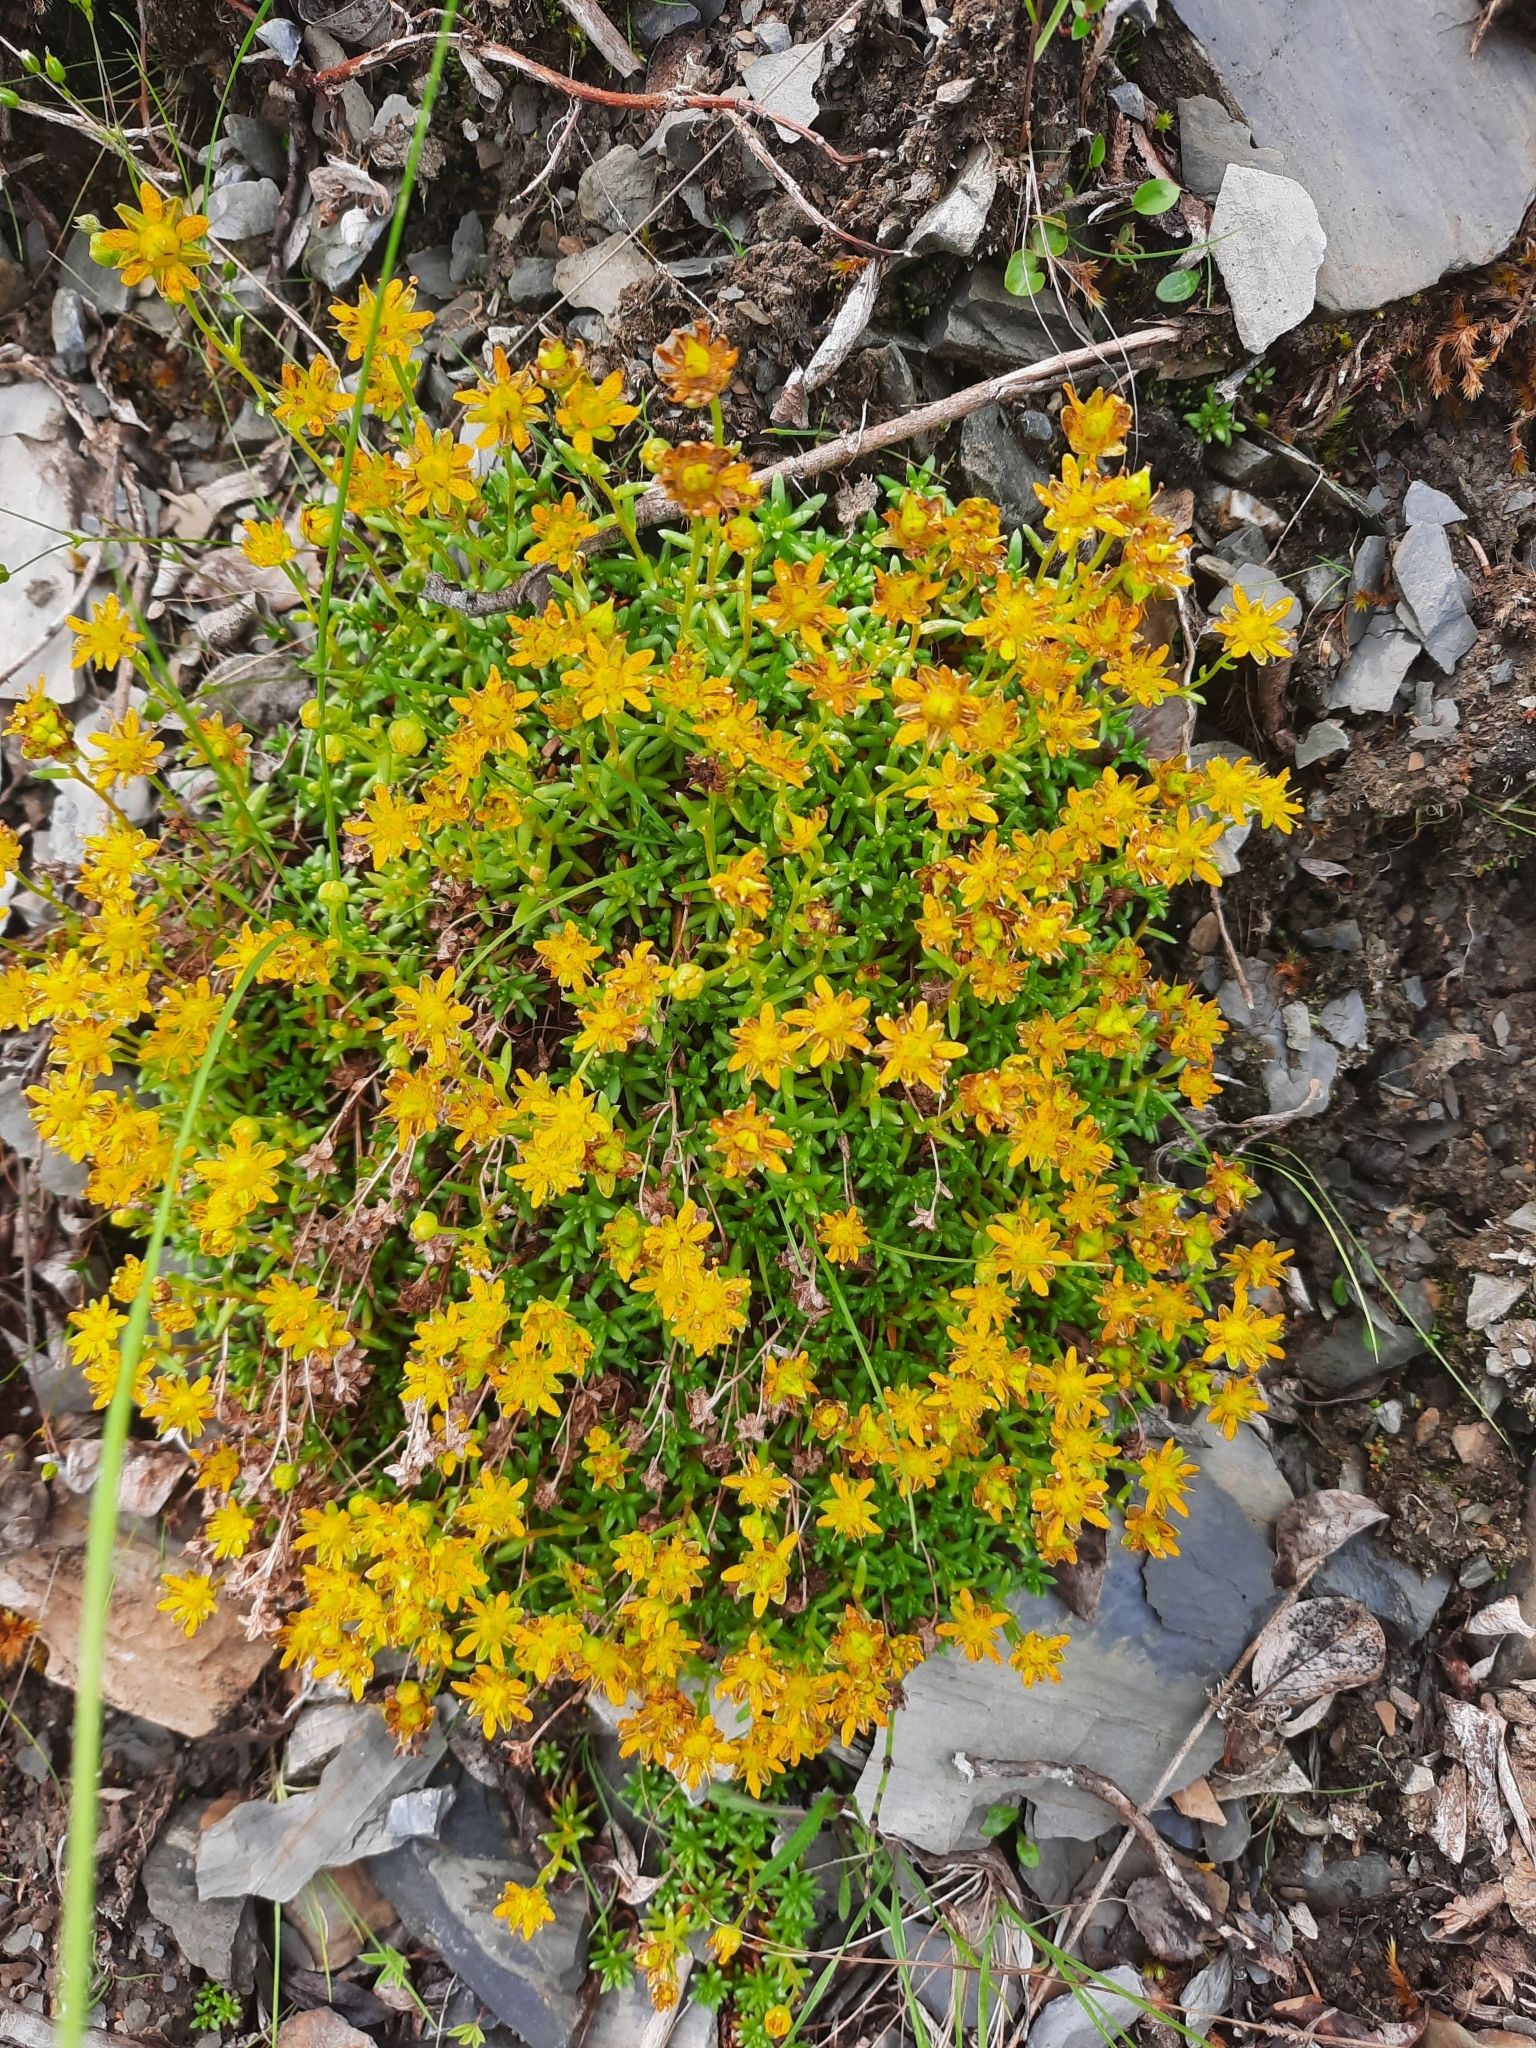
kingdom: Plantae
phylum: Tracheophyta
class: Magnoliopsida
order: Saxifragales
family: Saxifragaceae
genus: Saxifraga
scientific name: Saxifraga aizoides
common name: Yellow mountain saxifrage
